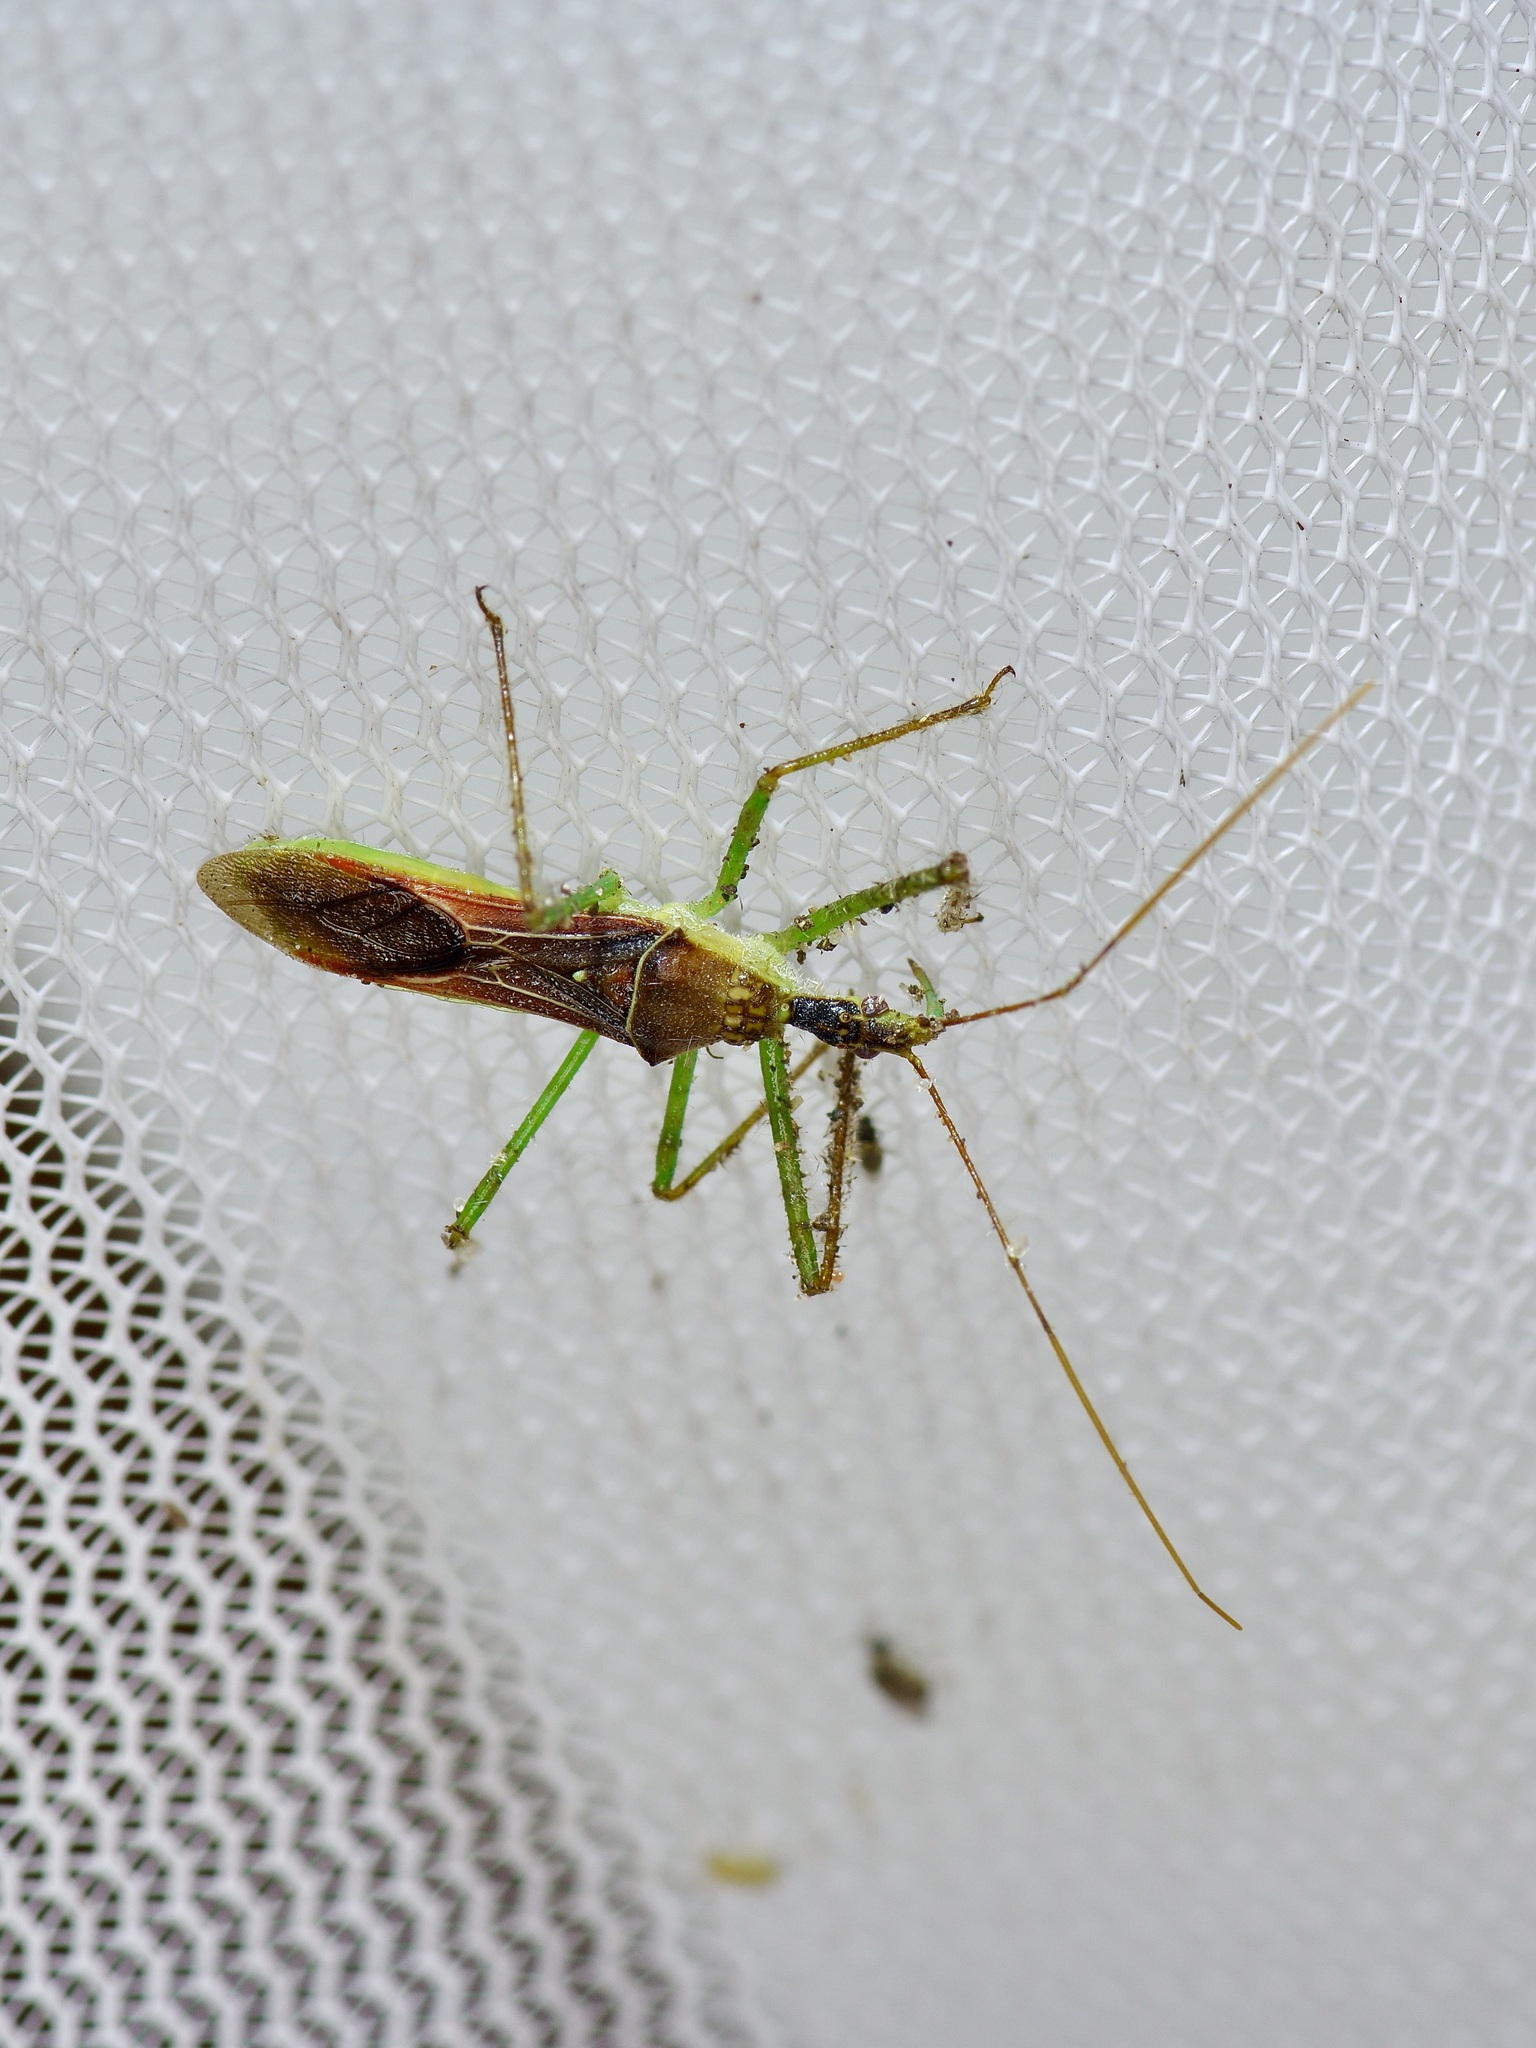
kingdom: Animalia
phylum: Arthropoda
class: Insecta
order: Hemiptera
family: Reduviidae
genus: Zelus
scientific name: Zelus renardii
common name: Assassin bug
